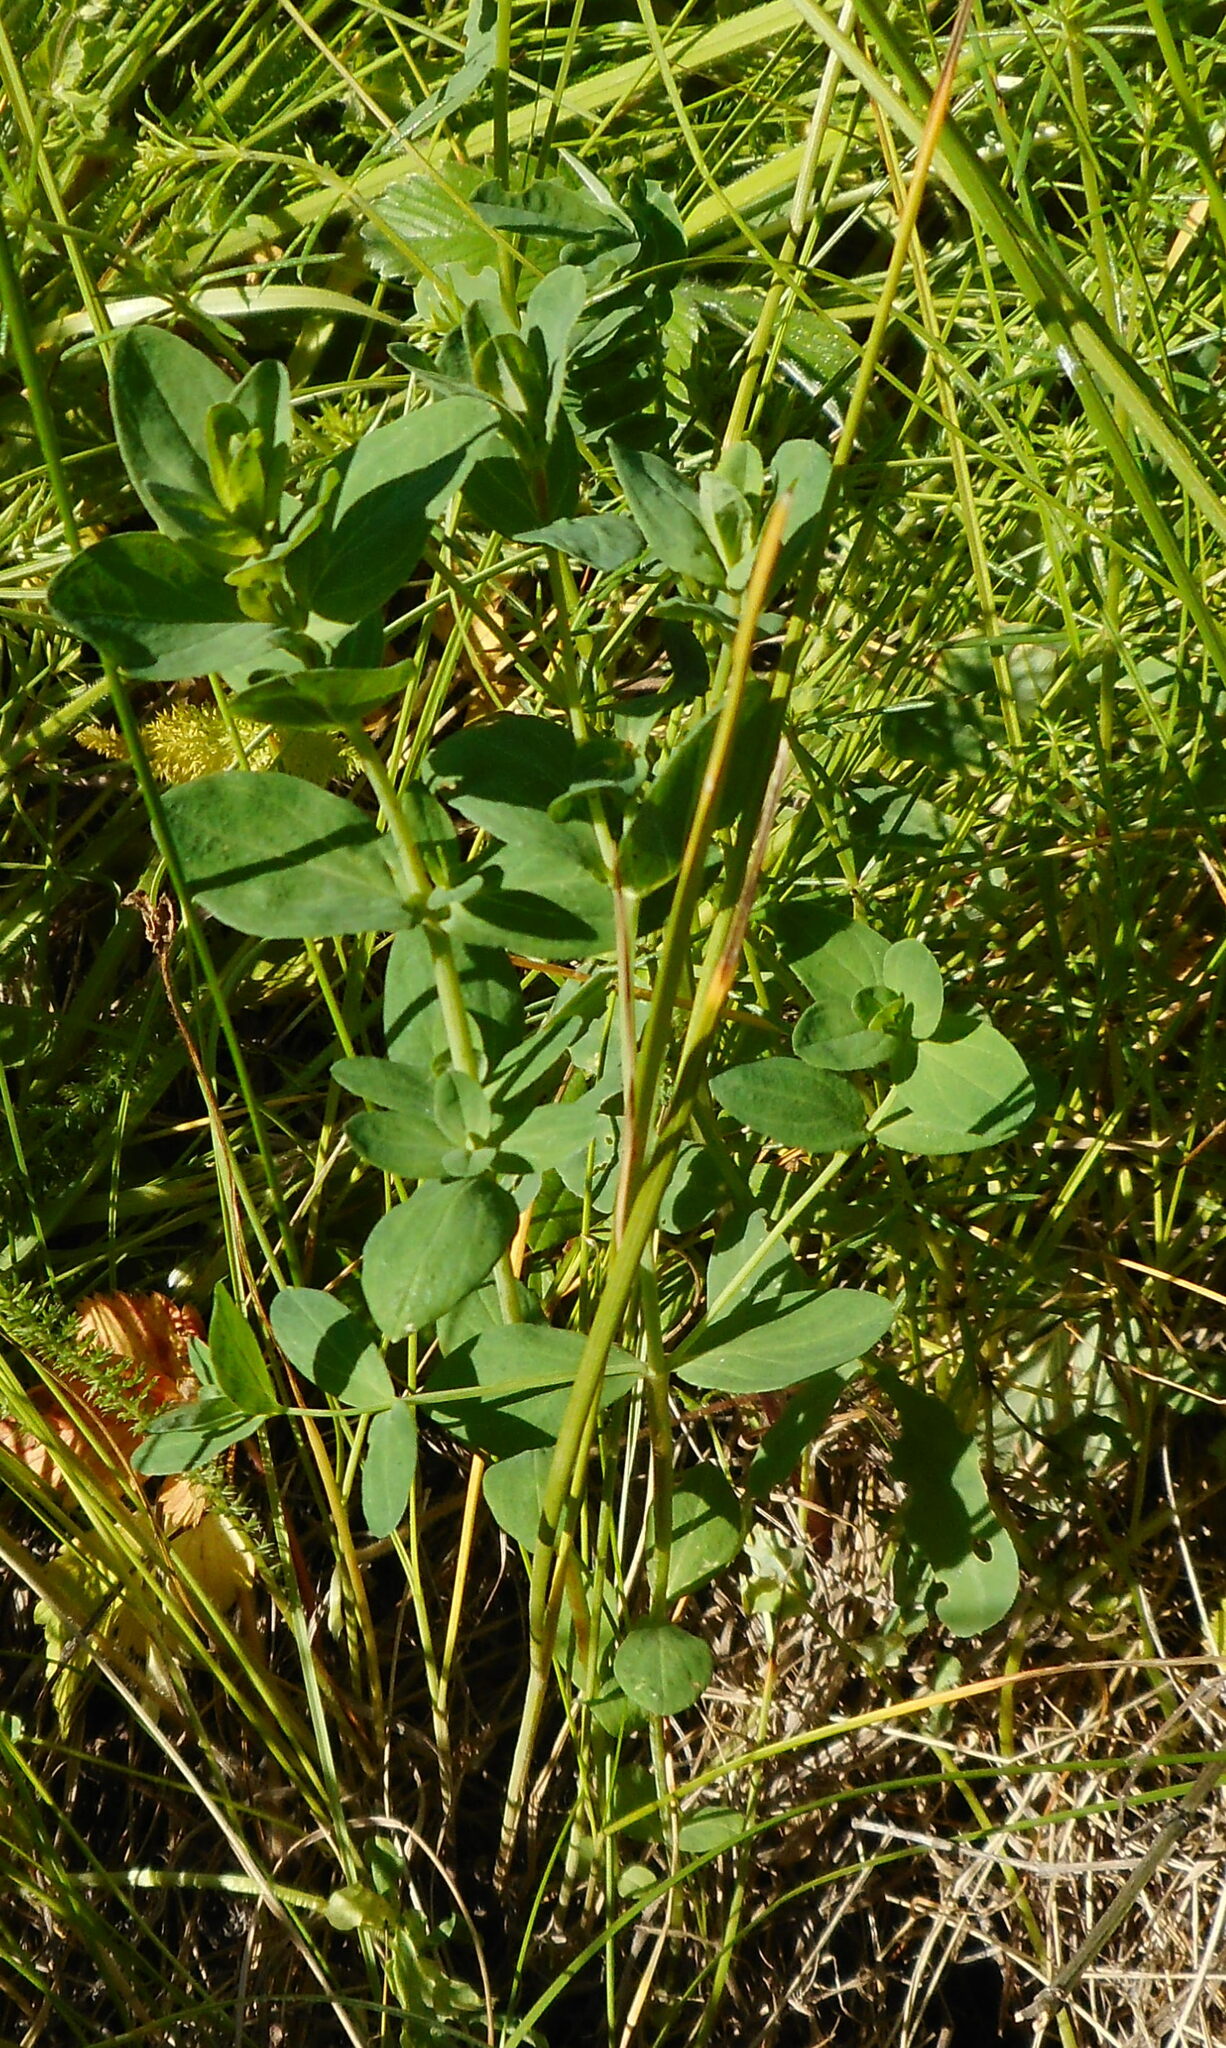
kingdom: Plantae
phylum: Tracheophyta
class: Magnoliopsida
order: Malpighiales
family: Hypericaceae
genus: Hypericum
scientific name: Hypericum perforatum
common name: Common st. johnswort
